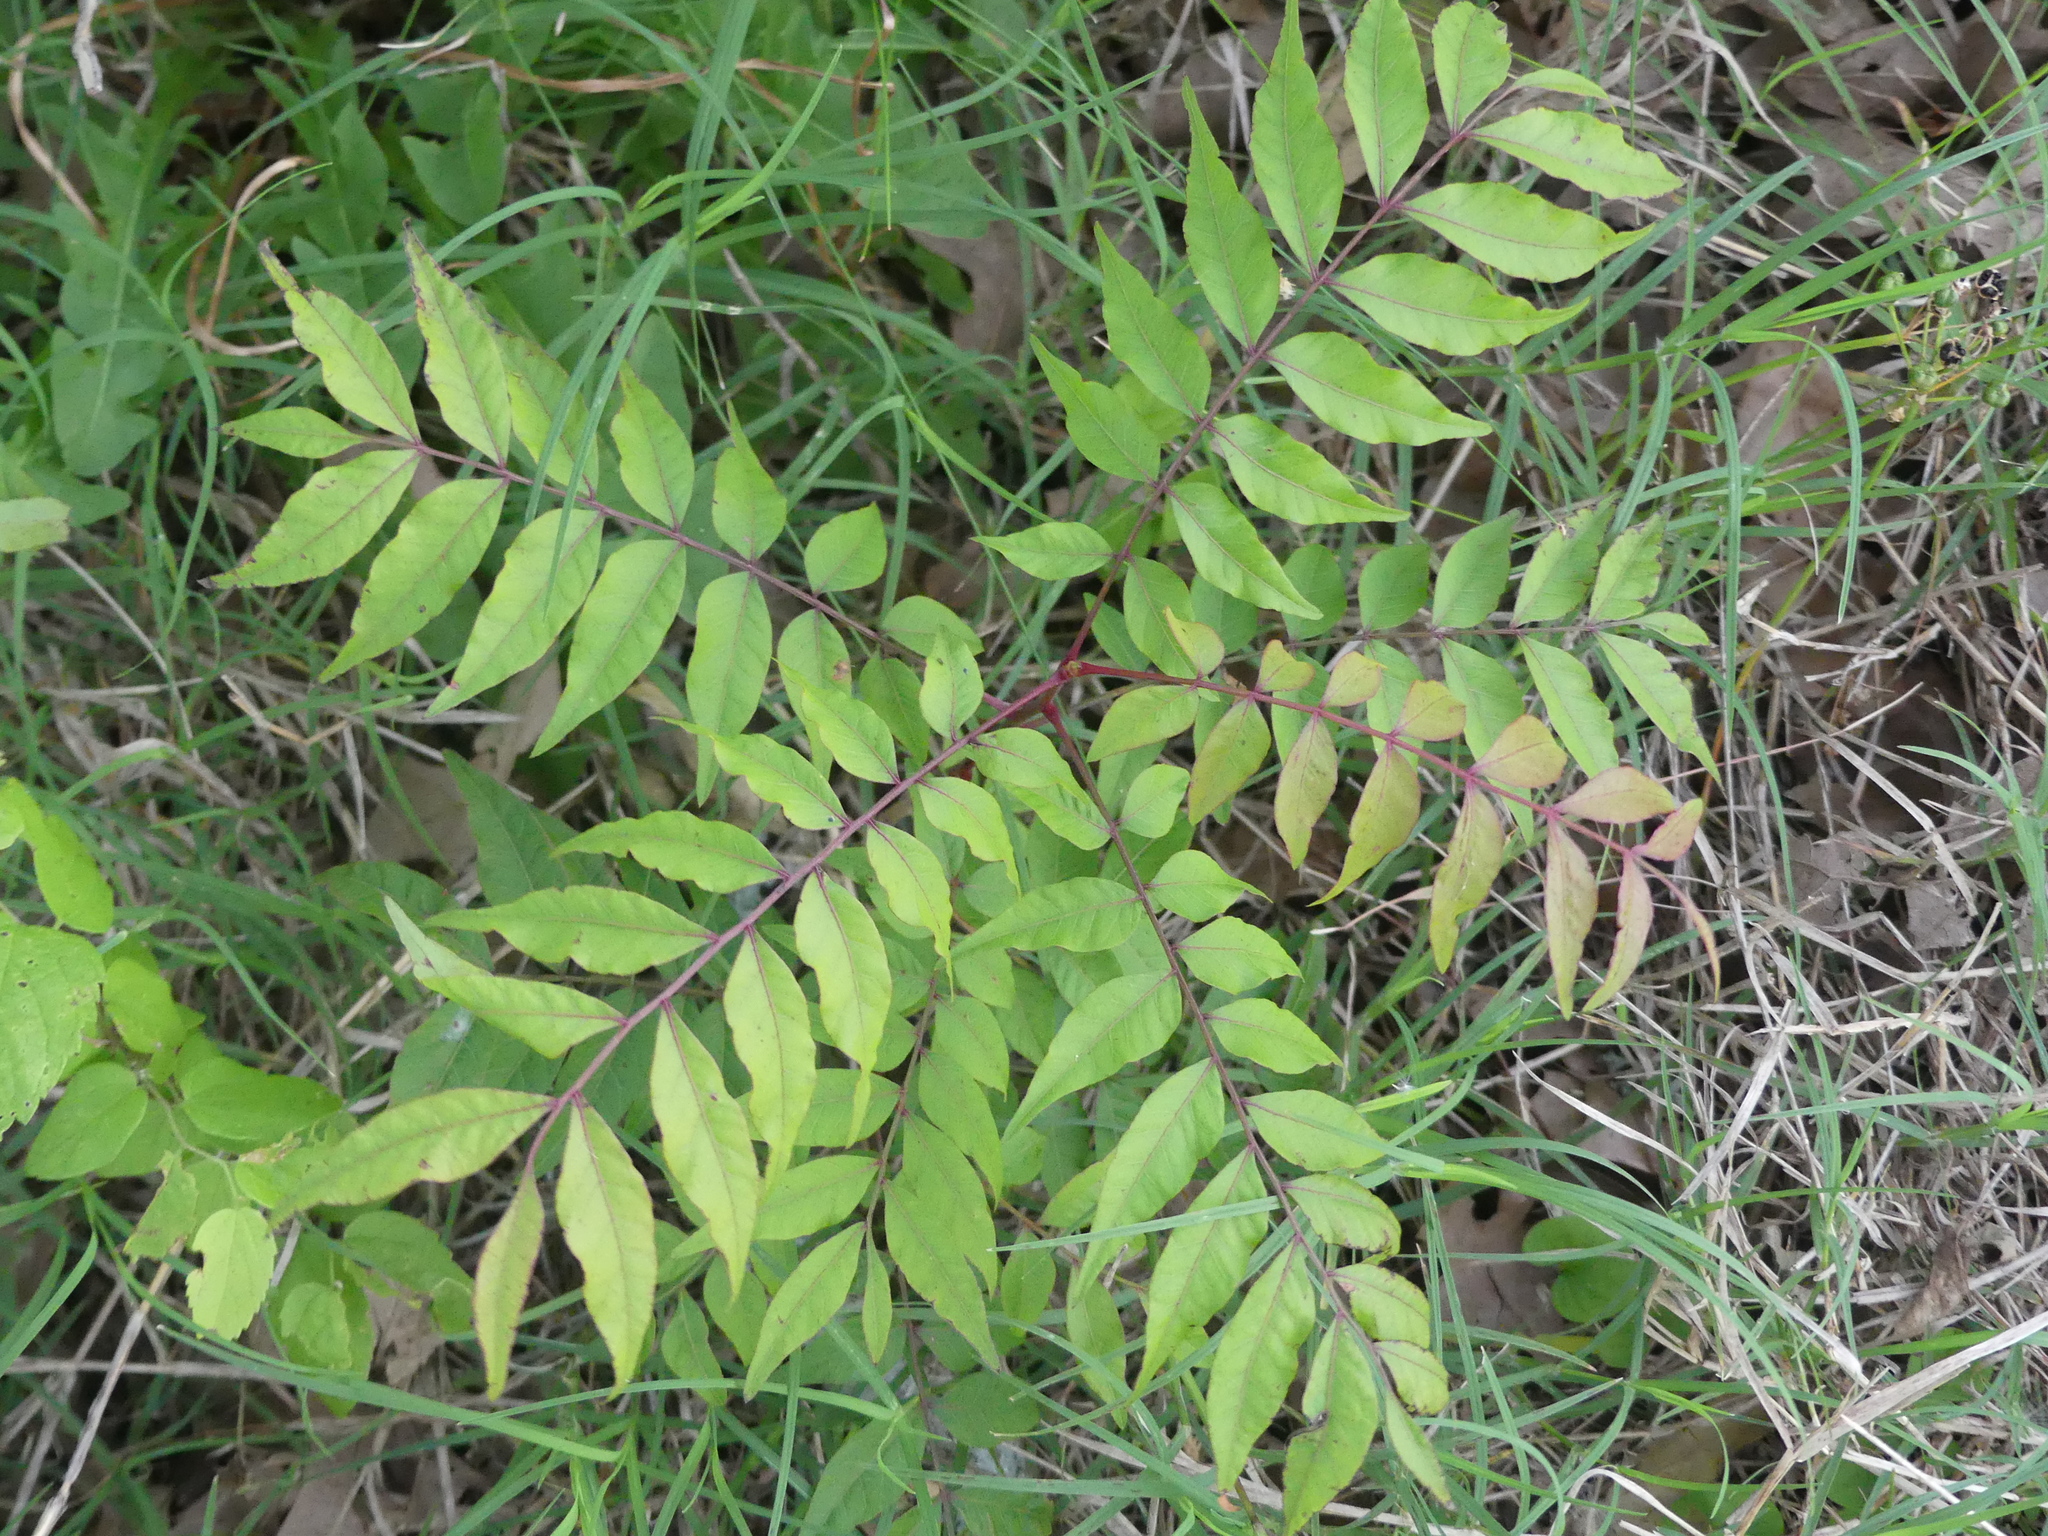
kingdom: Plantae
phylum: Tracheophyta
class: Magnoliopsida
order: Sapindales
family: Anacardiaceae
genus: Pistacia
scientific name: Pistacia chinensis
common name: Chinese pistache
